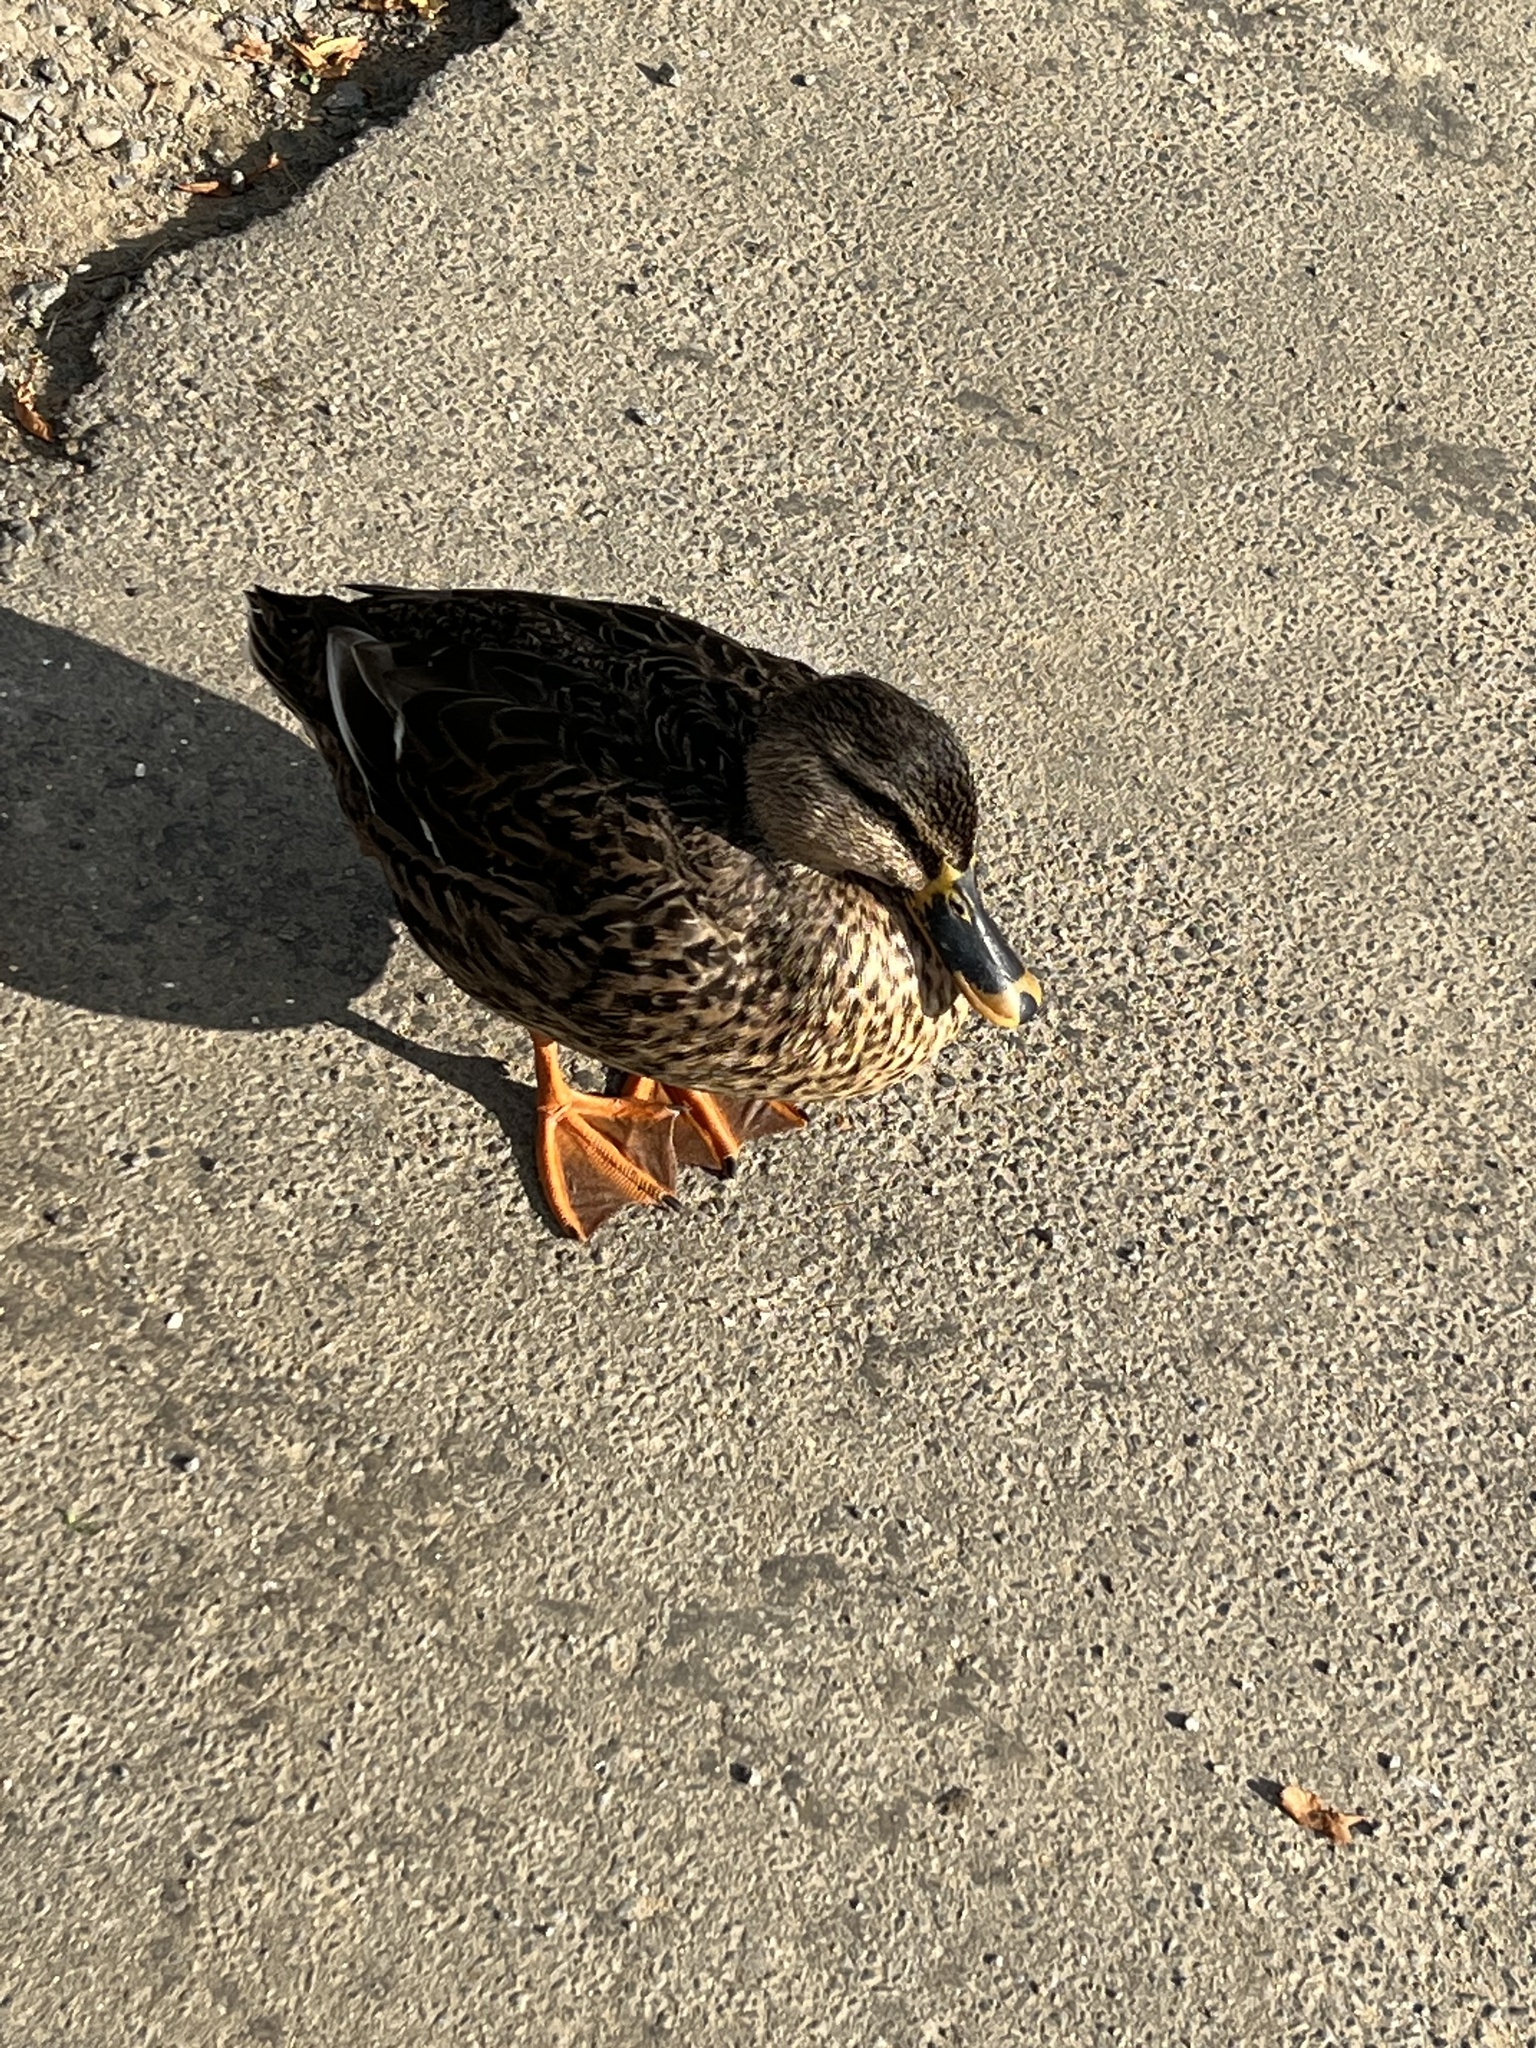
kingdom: Animalia
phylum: Chordata
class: Aves
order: Anseriformes
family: Anatidae
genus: Anas
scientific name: Anas
